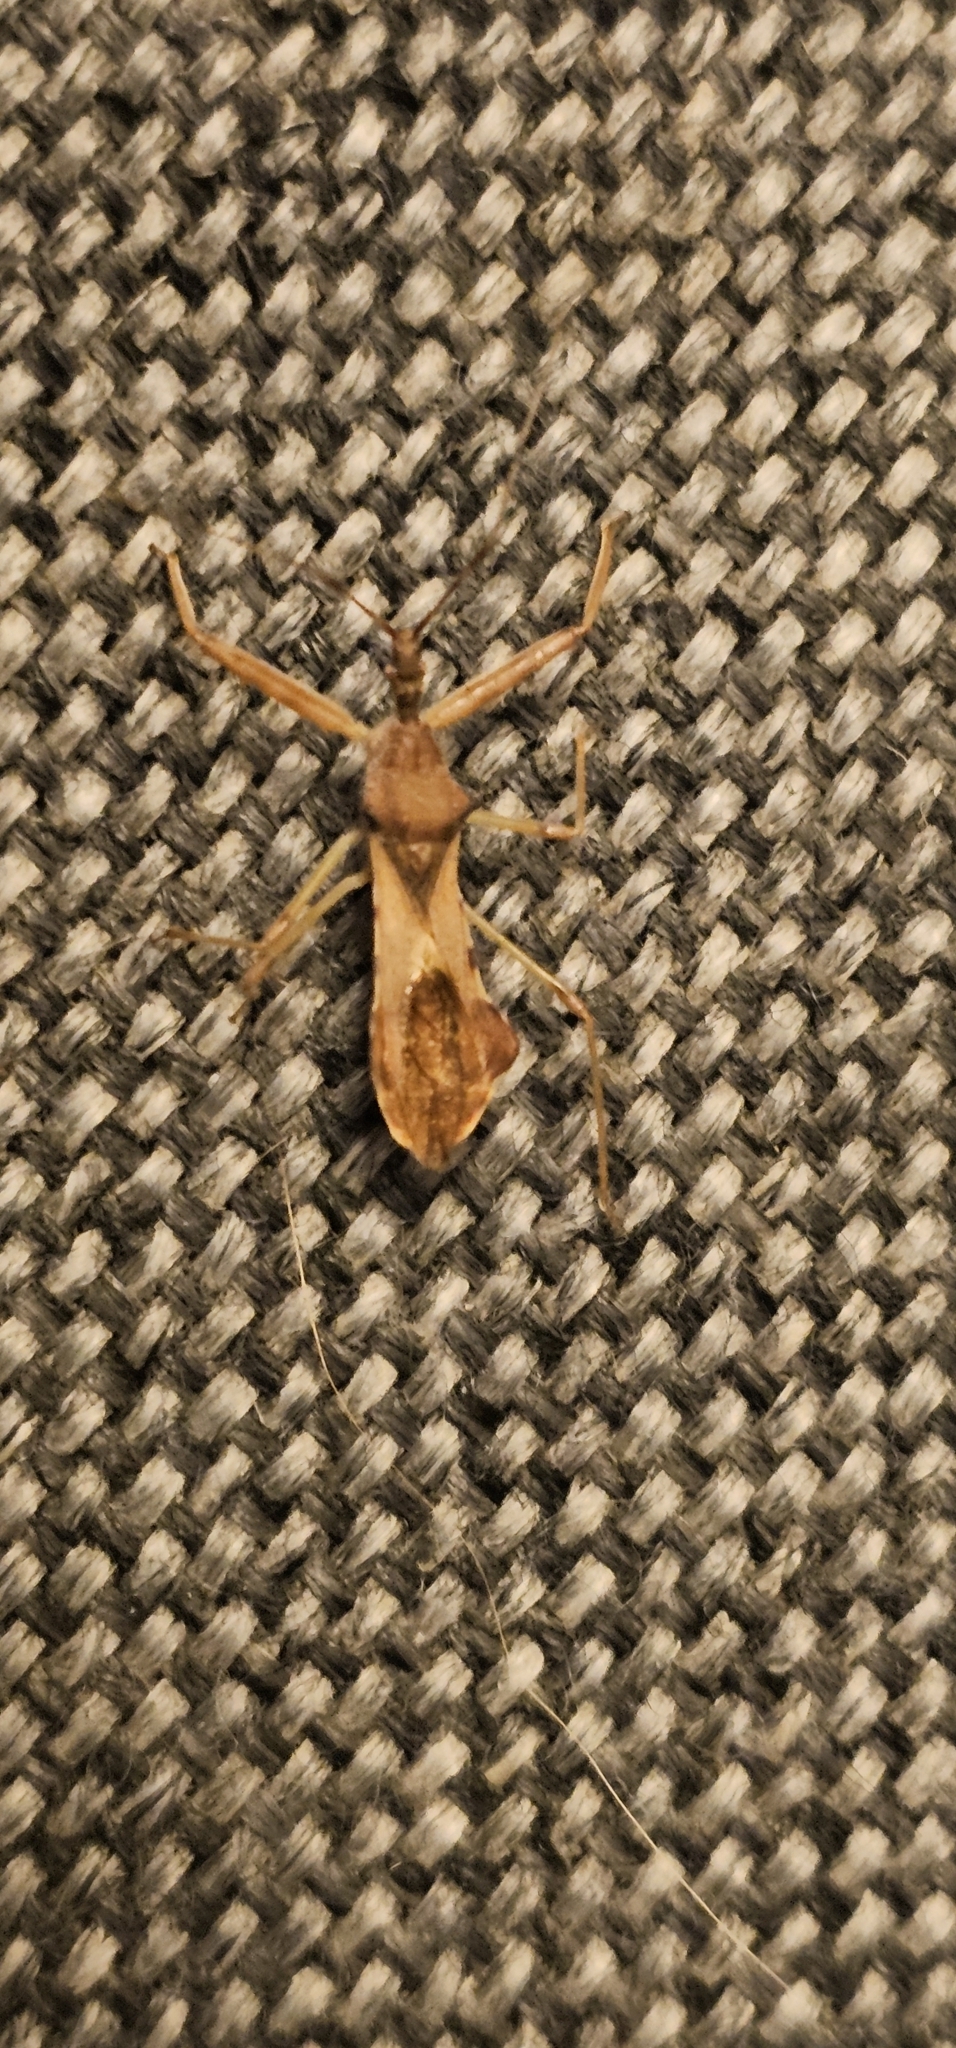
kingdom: Animalia
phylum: Arthropoda
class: Insecta
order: Hemiptera
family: Reduviidae
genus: Nagusta
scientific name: Nagusta goedelii
